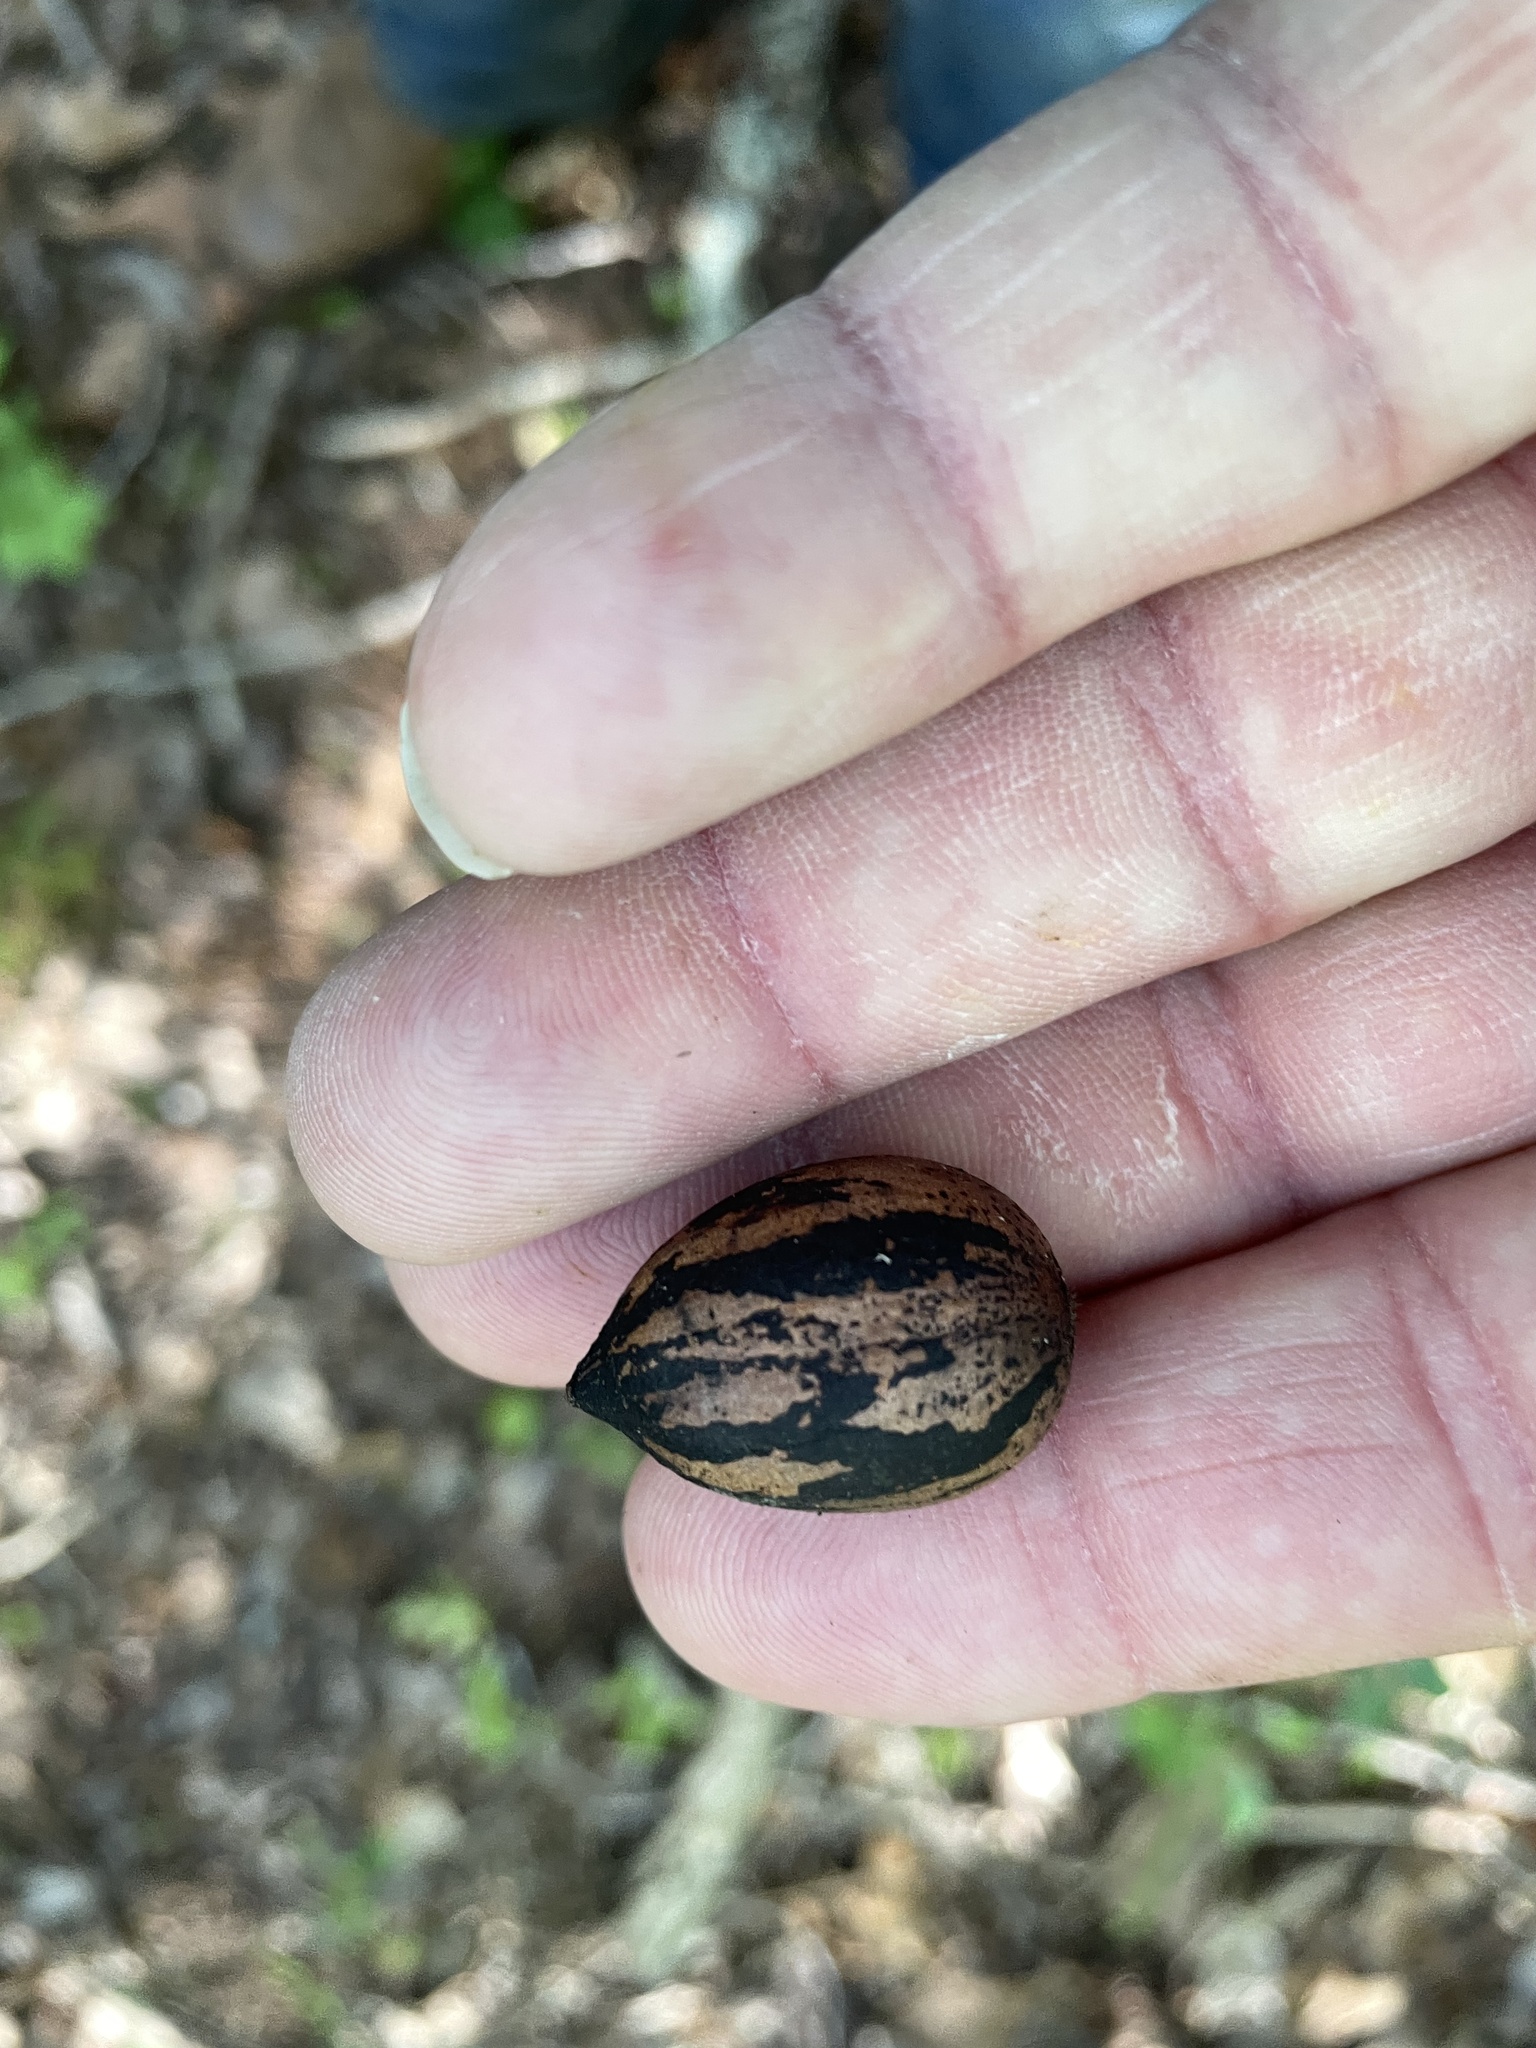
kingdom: Plantae
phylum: Tracheophyta
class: Magnoliopsida
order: Fagales
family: Juglandaceae
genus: Carya
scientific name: Carya illinoinensis
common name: Pecan
